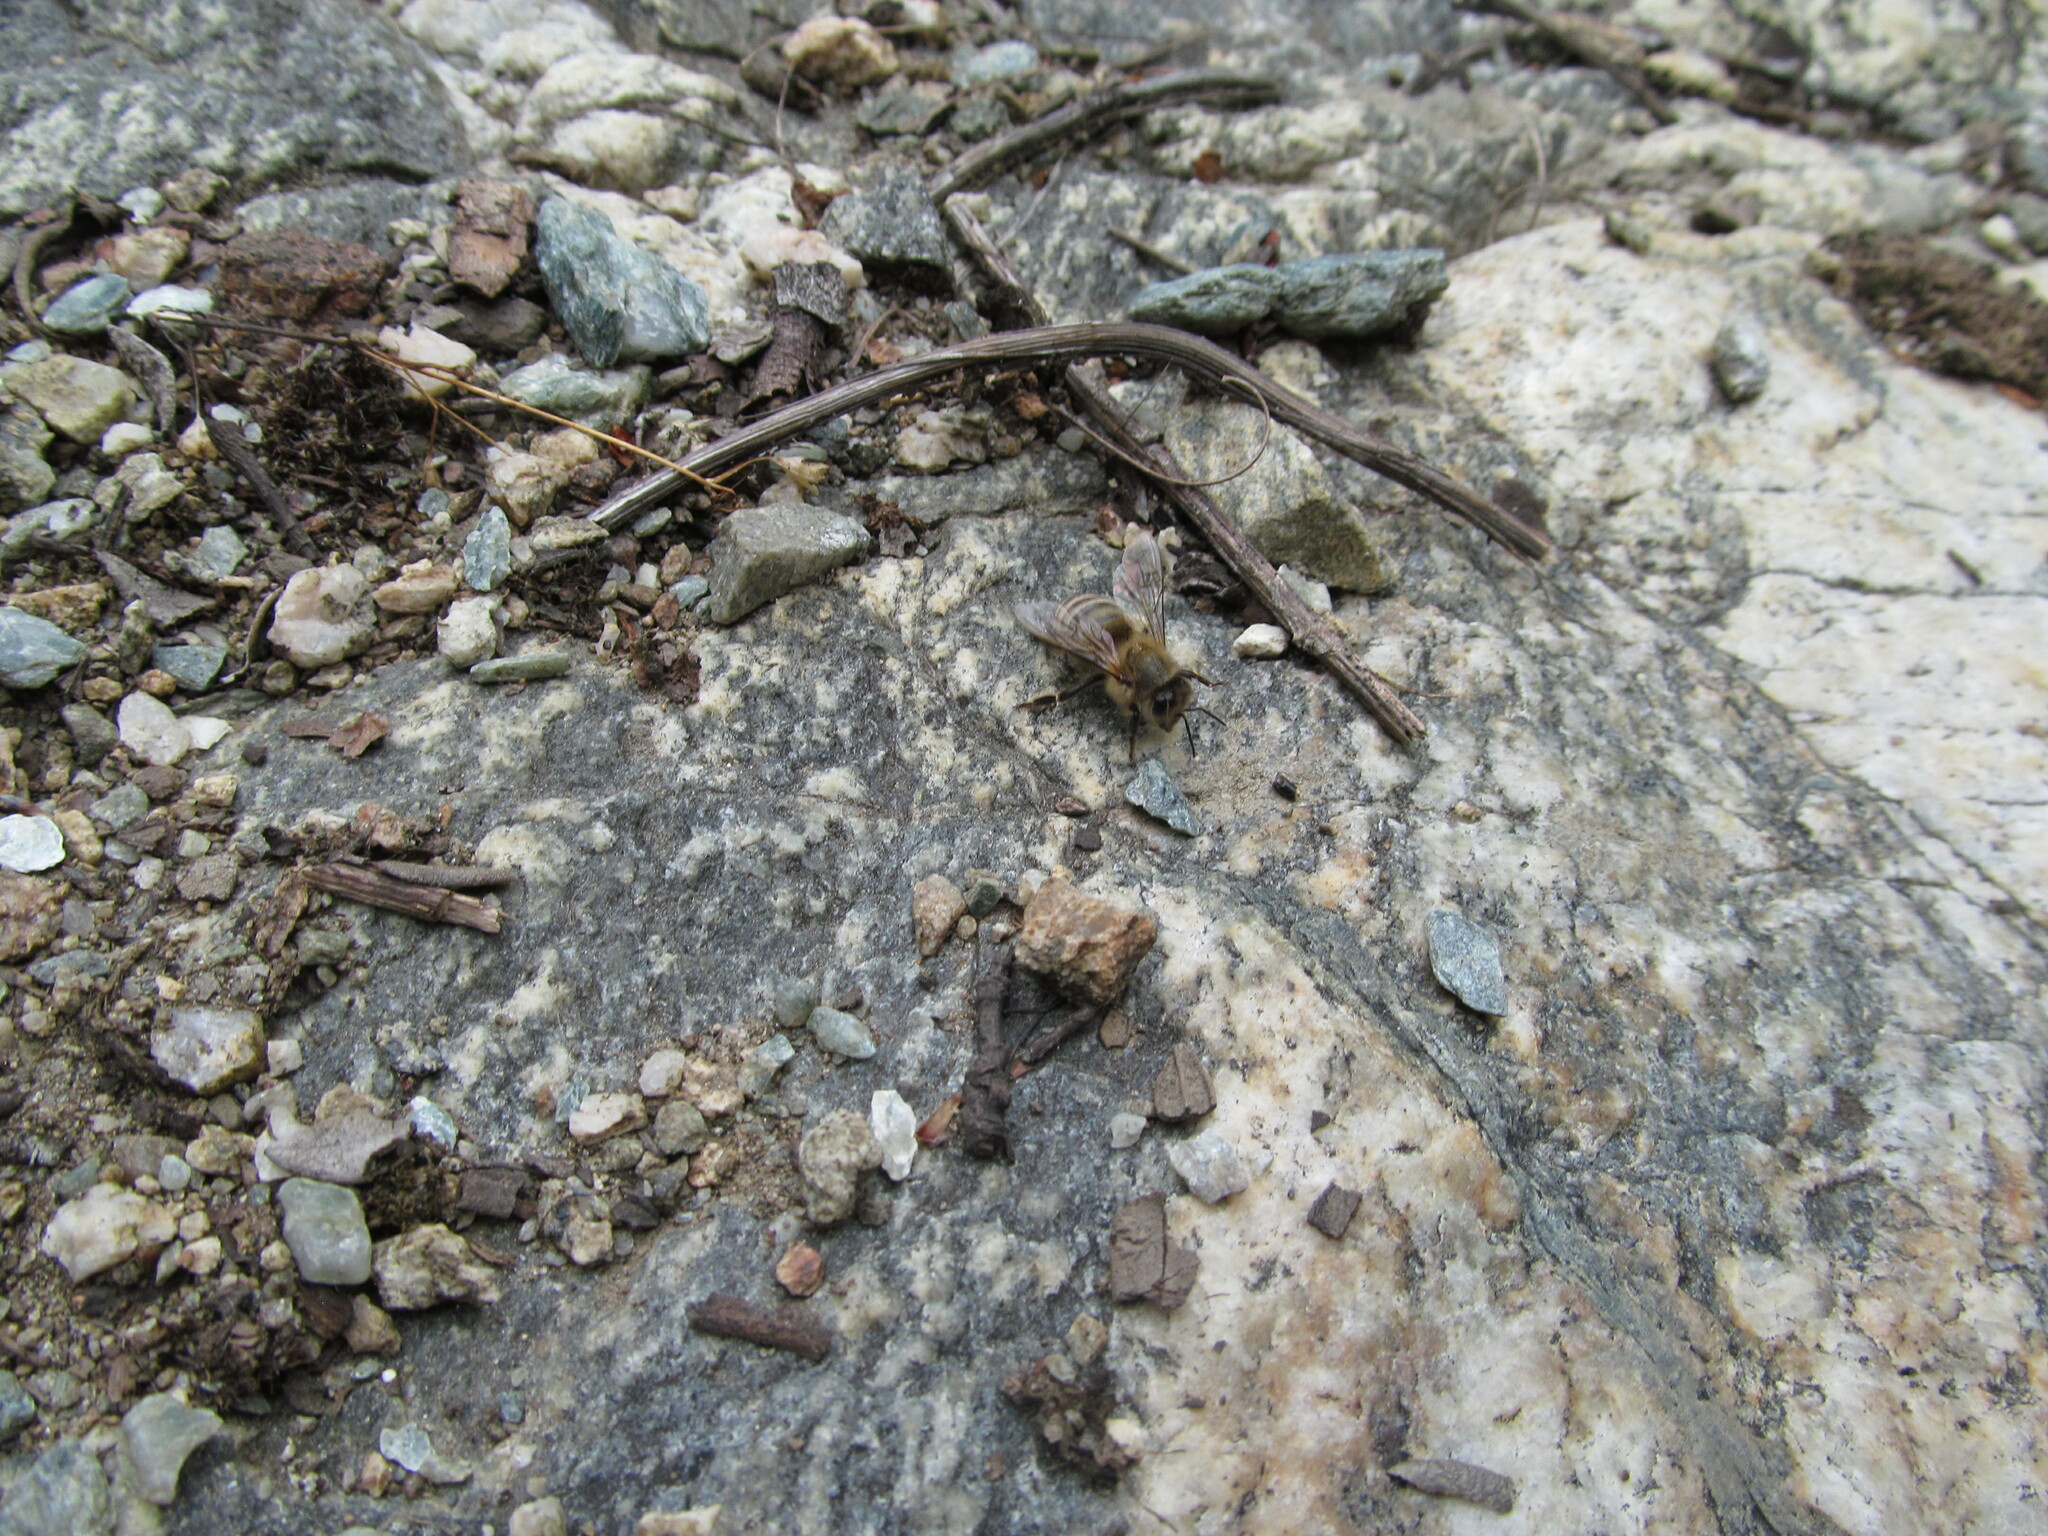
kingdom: Animalia
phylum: Arthropoda
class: Insecta
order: Hymenoptera
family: Apidae
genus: Apis
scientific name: Apis mellifera
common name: Honey bee
